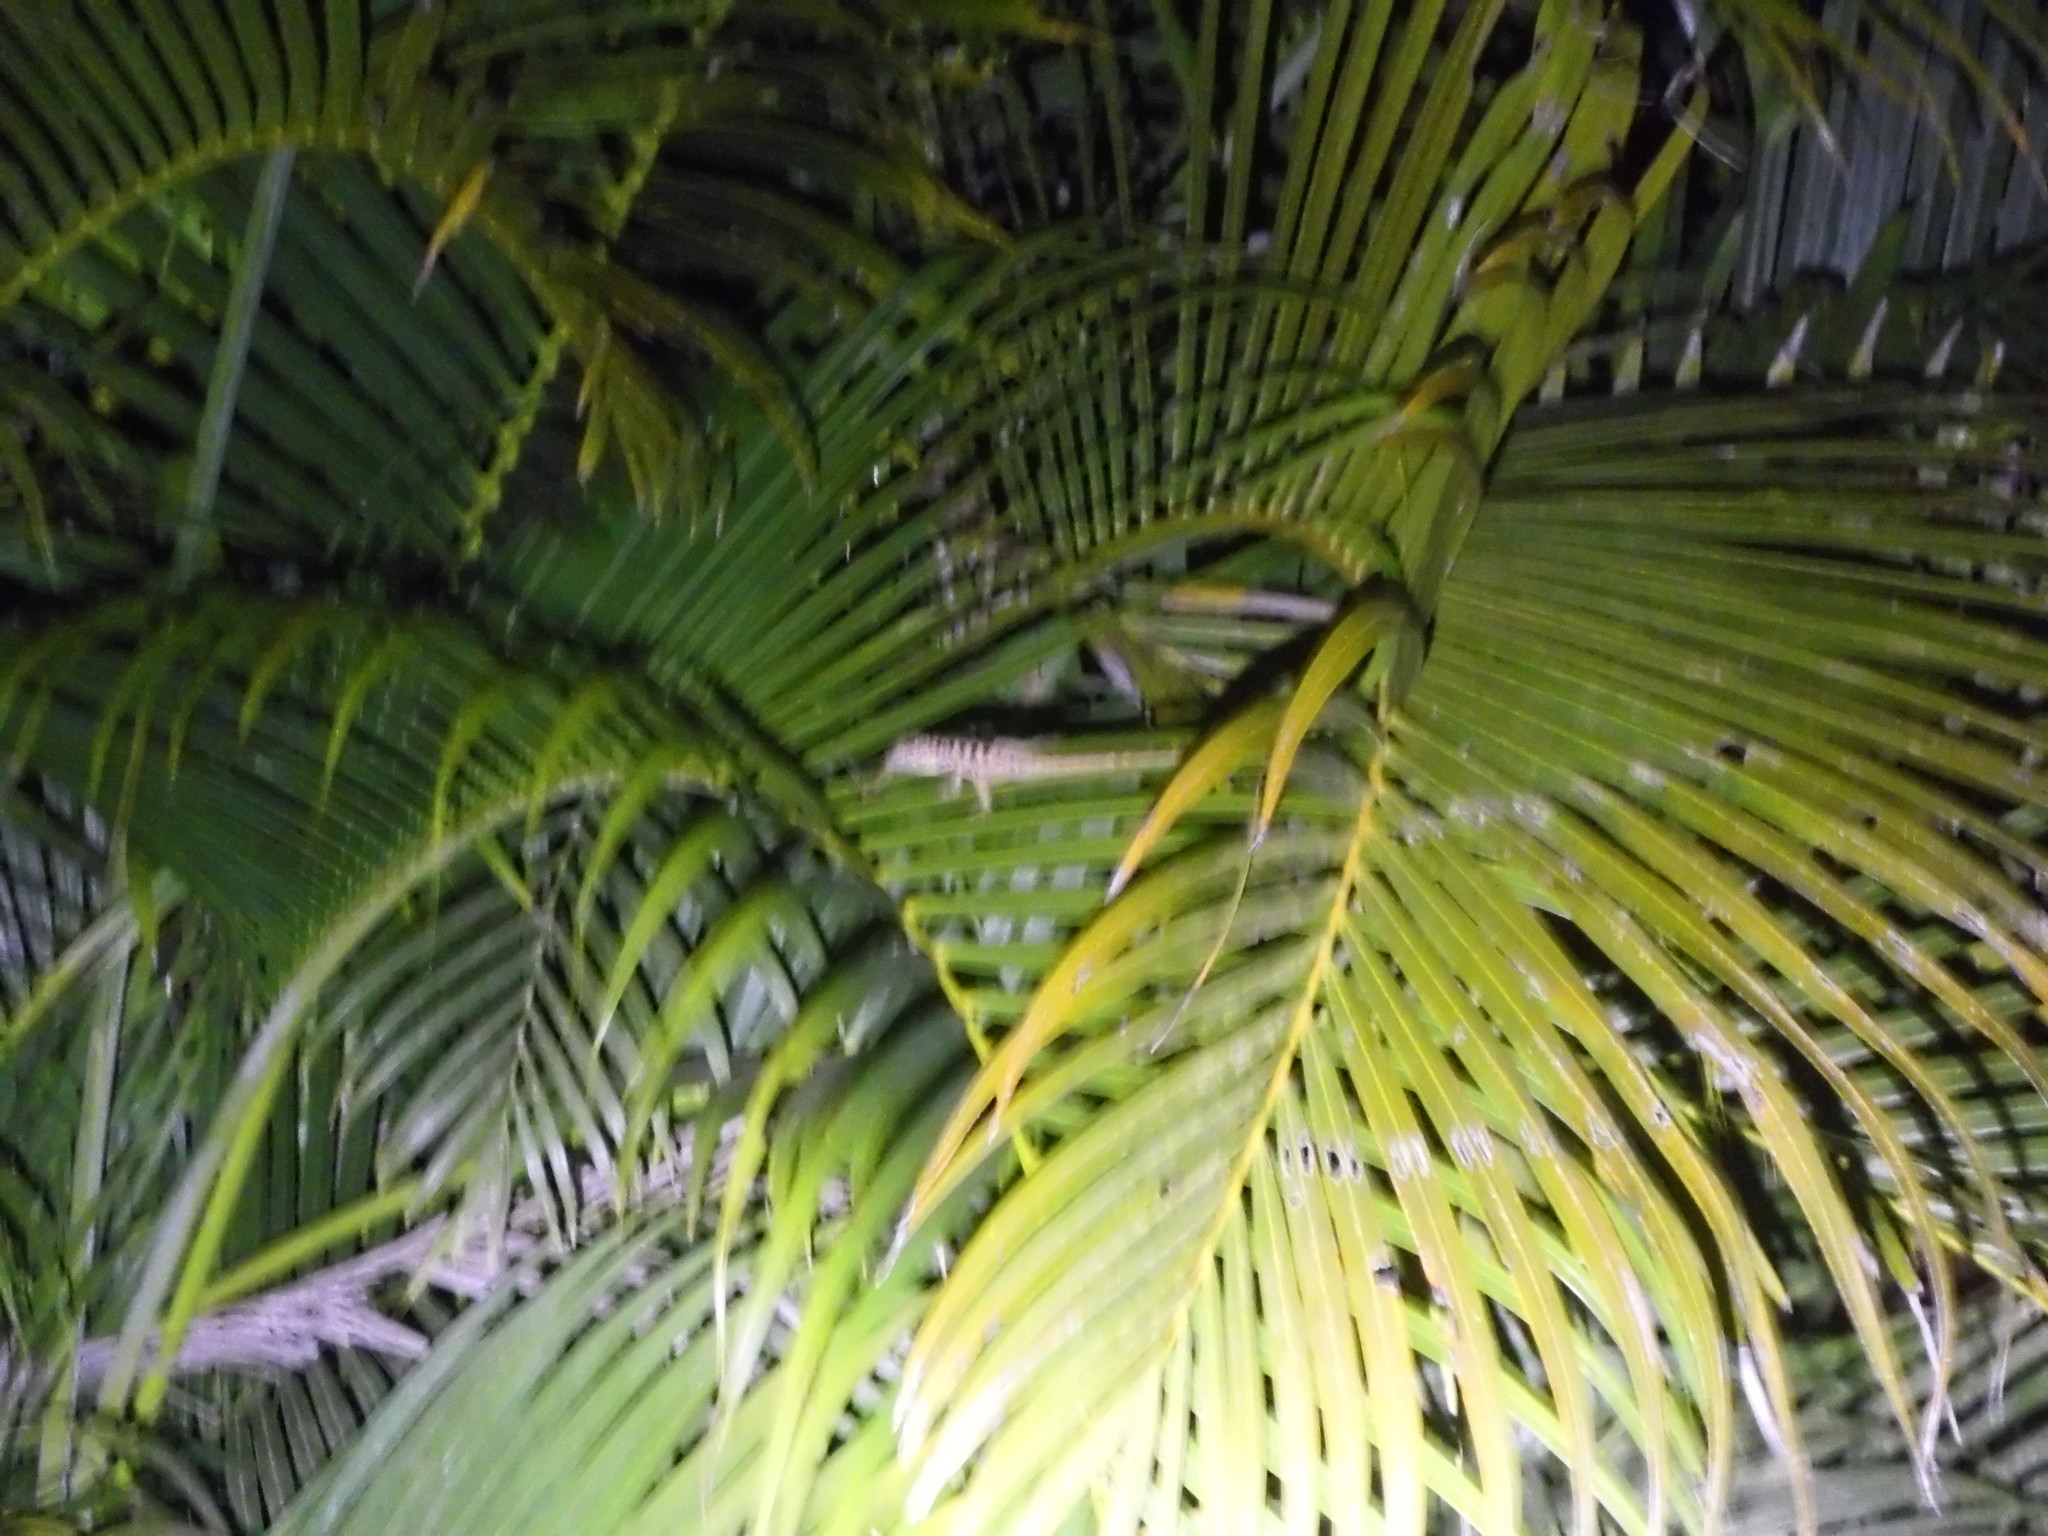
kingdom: Animalia
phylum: Chordata
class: Squamata
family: Dactyloidae
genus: Anolis
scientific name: Anolis sabanus
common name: Saba anole
